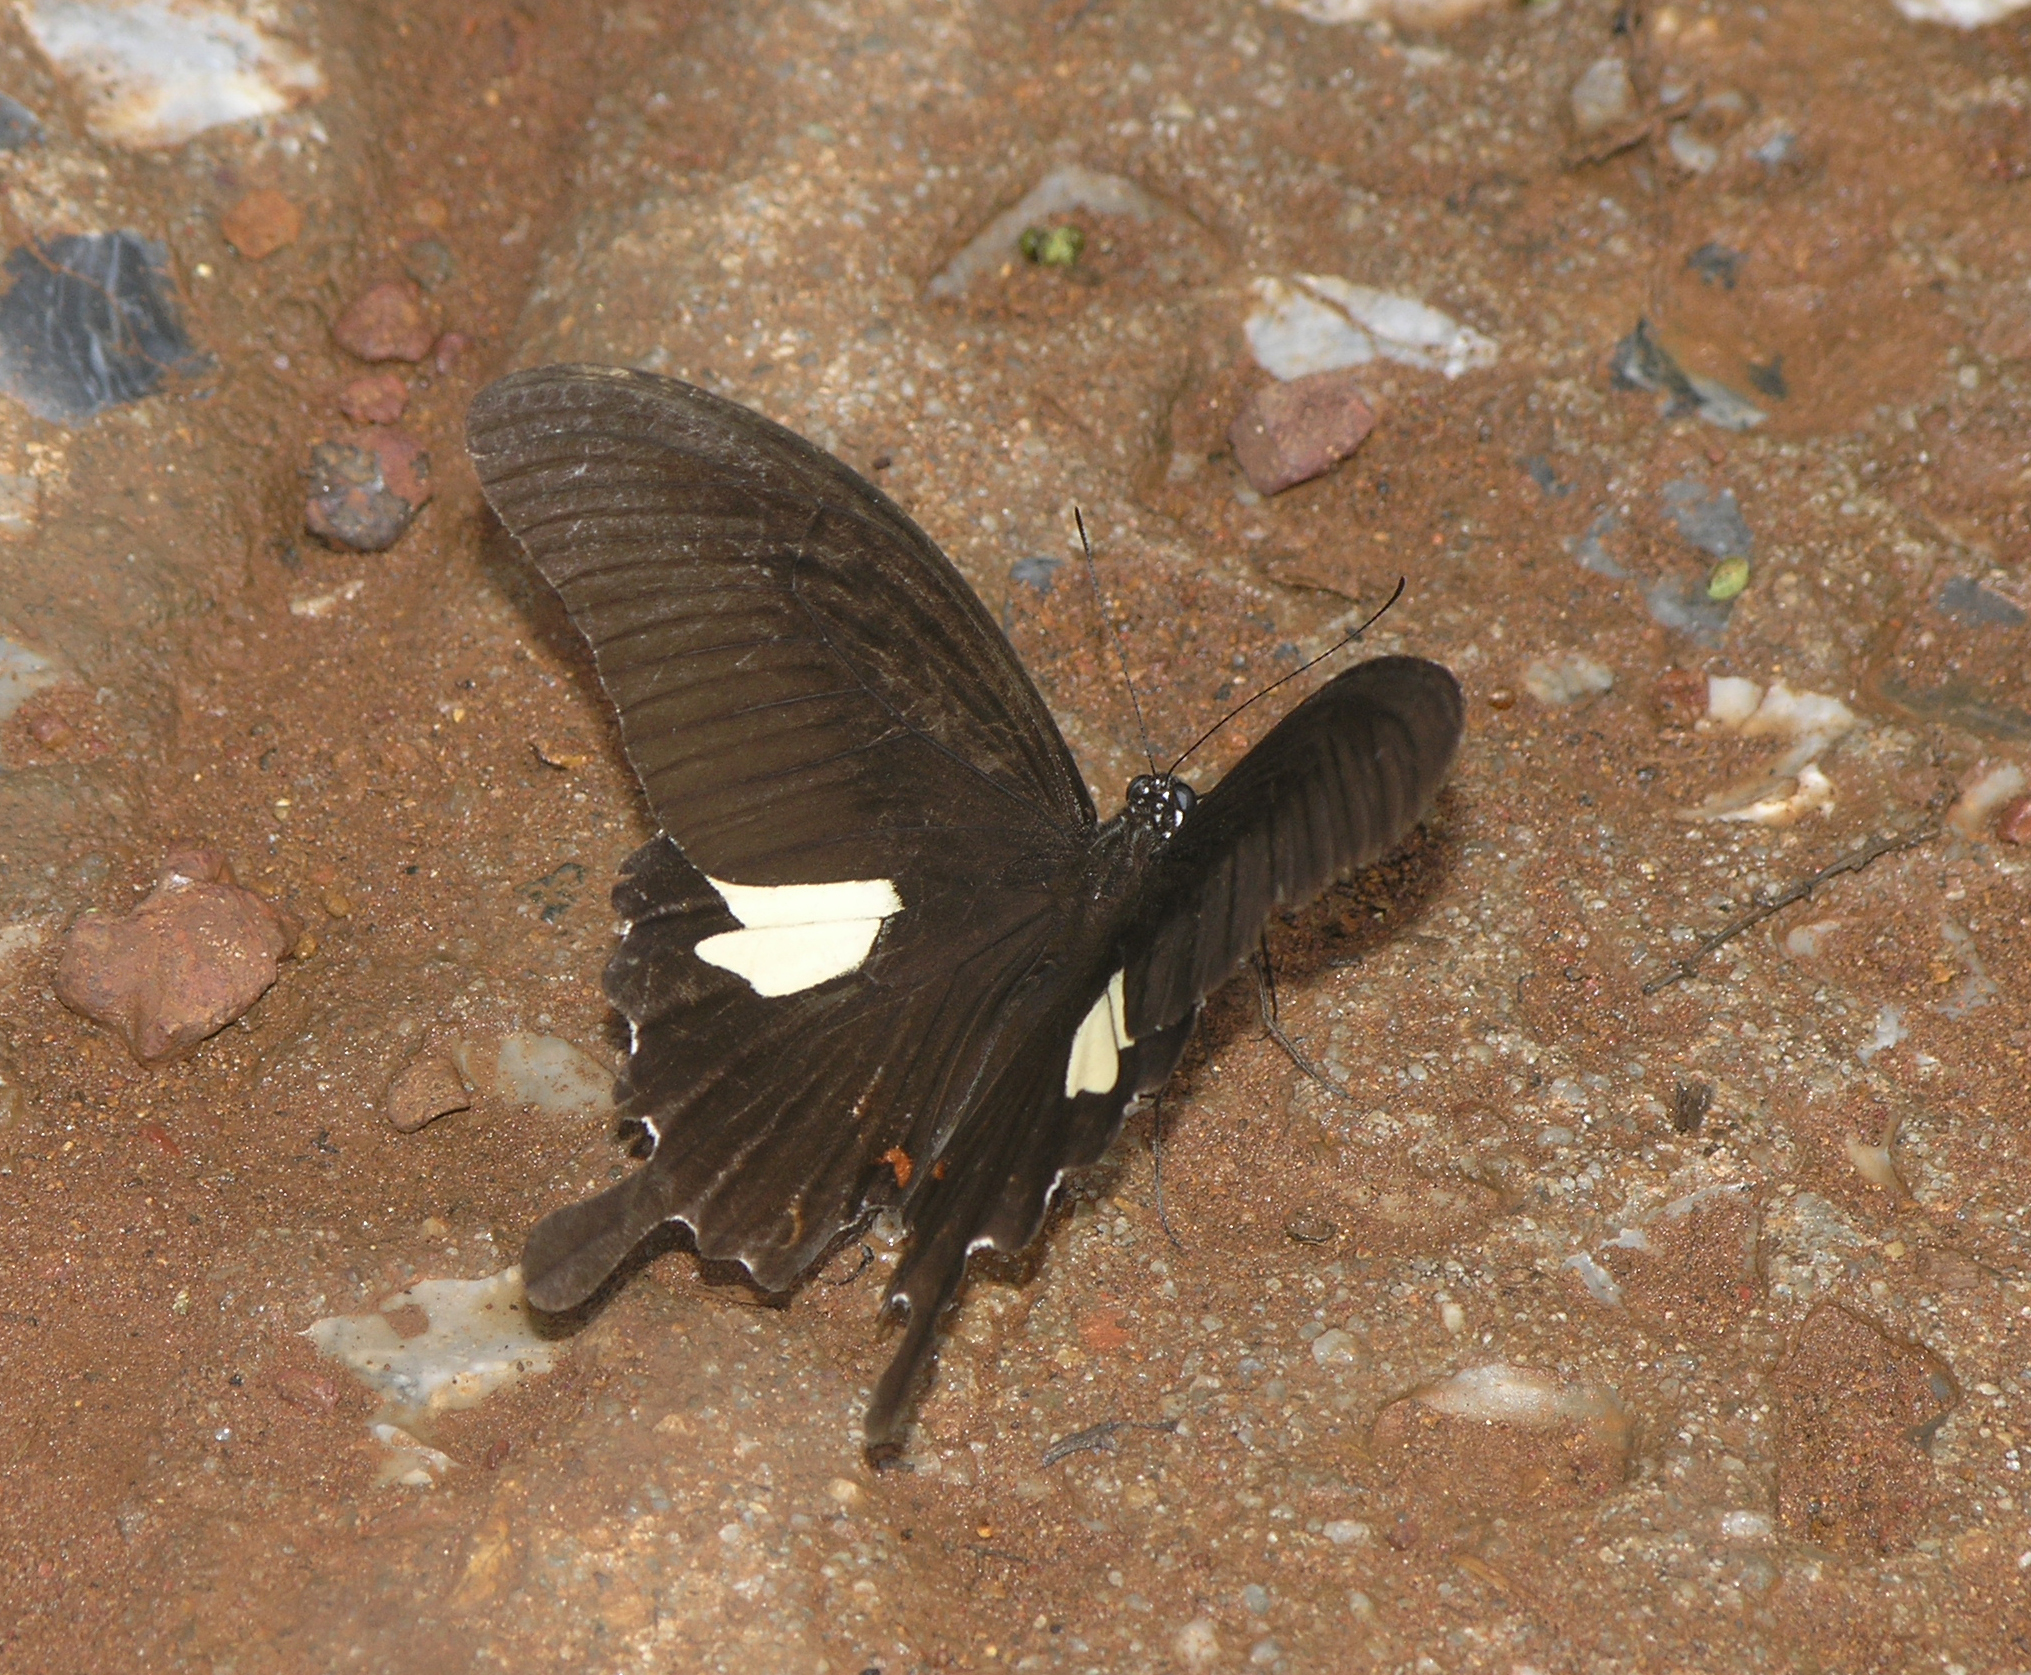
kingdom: Animalia
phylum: Arthropoda
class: Insecta
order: Lepidoptera
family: Papilionidae
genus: Papilio
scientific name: Papilio helenus
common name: Red helen
